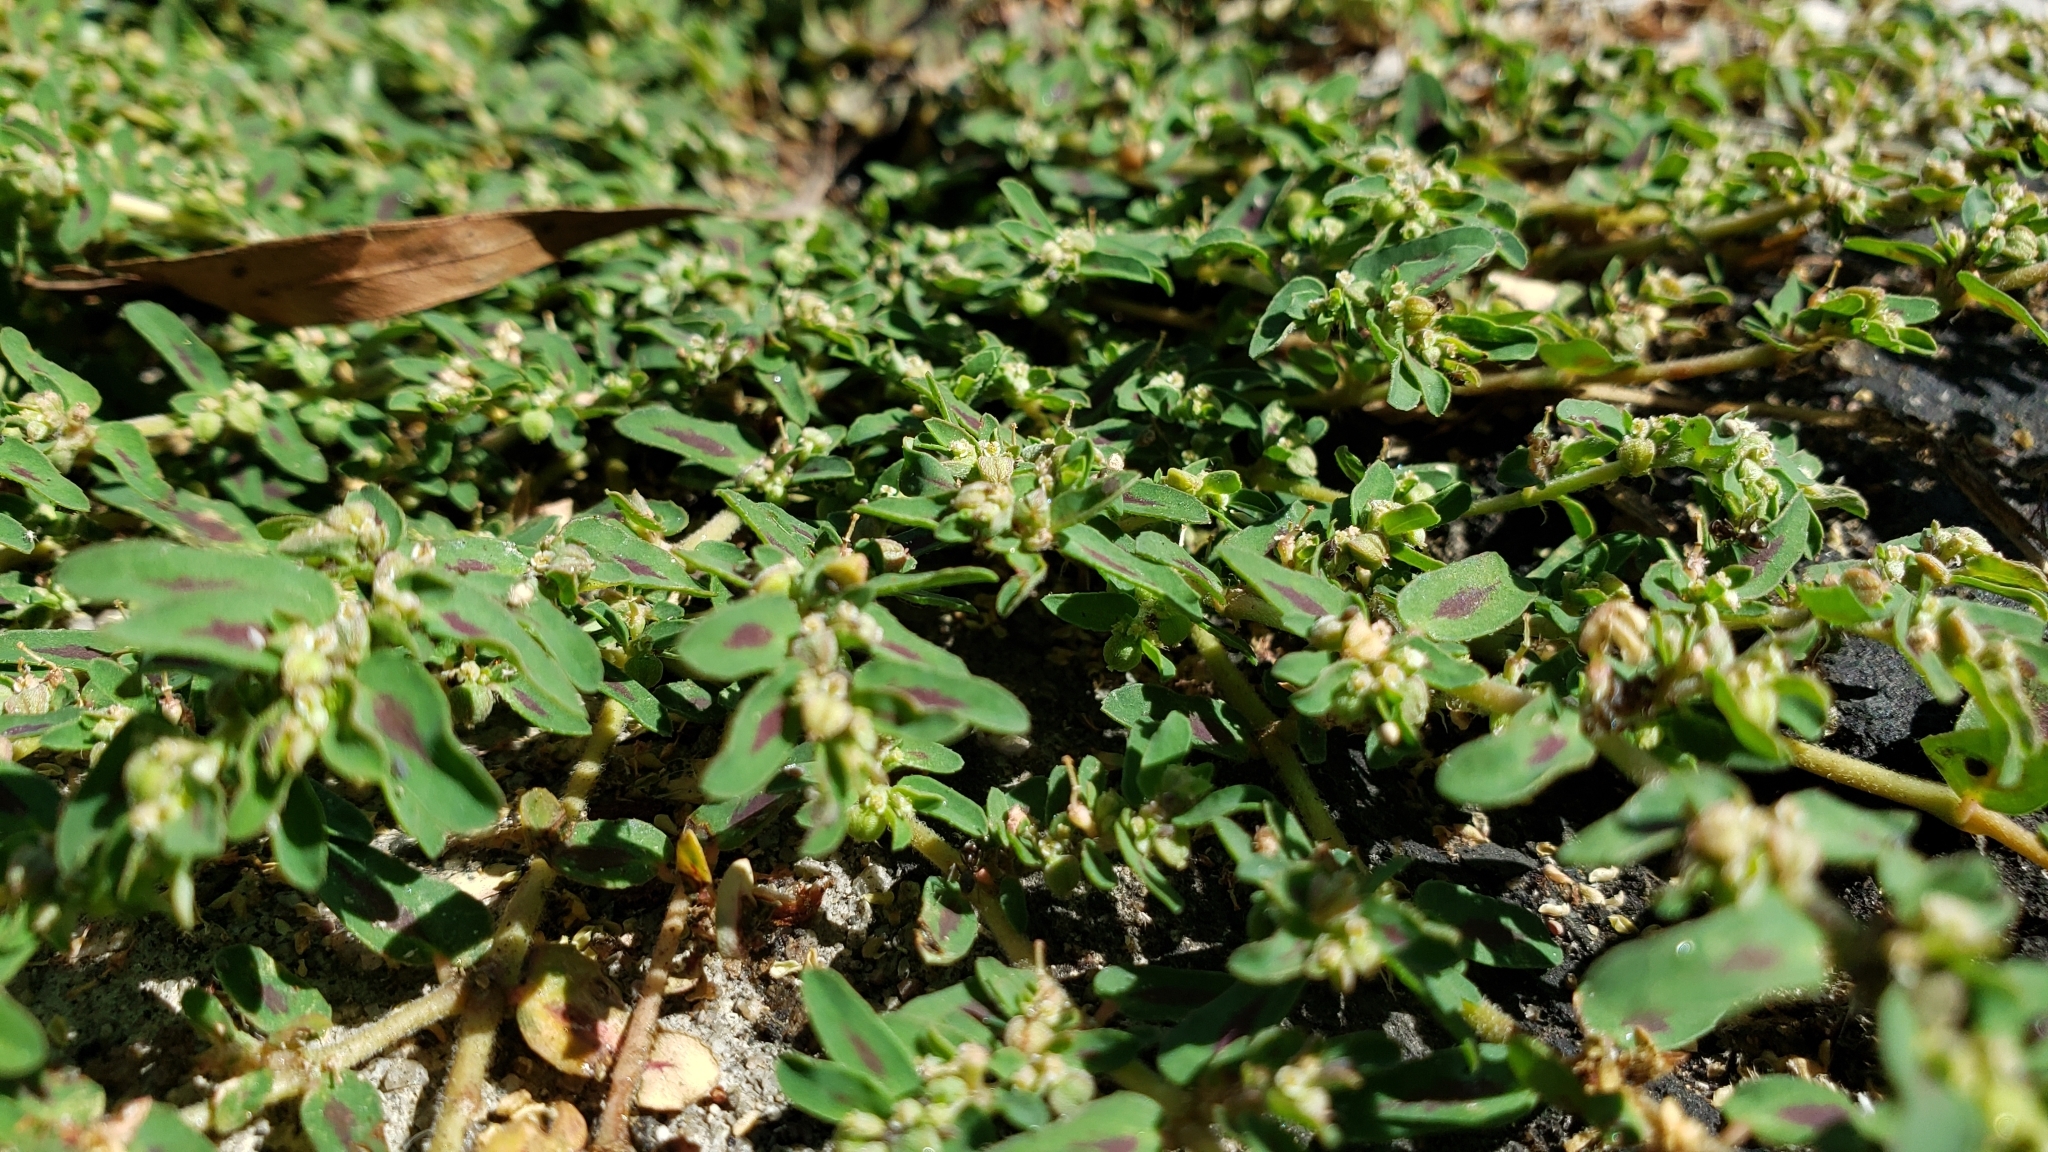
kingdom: Plantae
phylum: Tracheophyta
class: Magnoliopsida
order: Malpighiales
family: Euphorbiaceae
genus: Euphorbia
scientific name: Euphorbia maculata
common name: Spotted spurge
